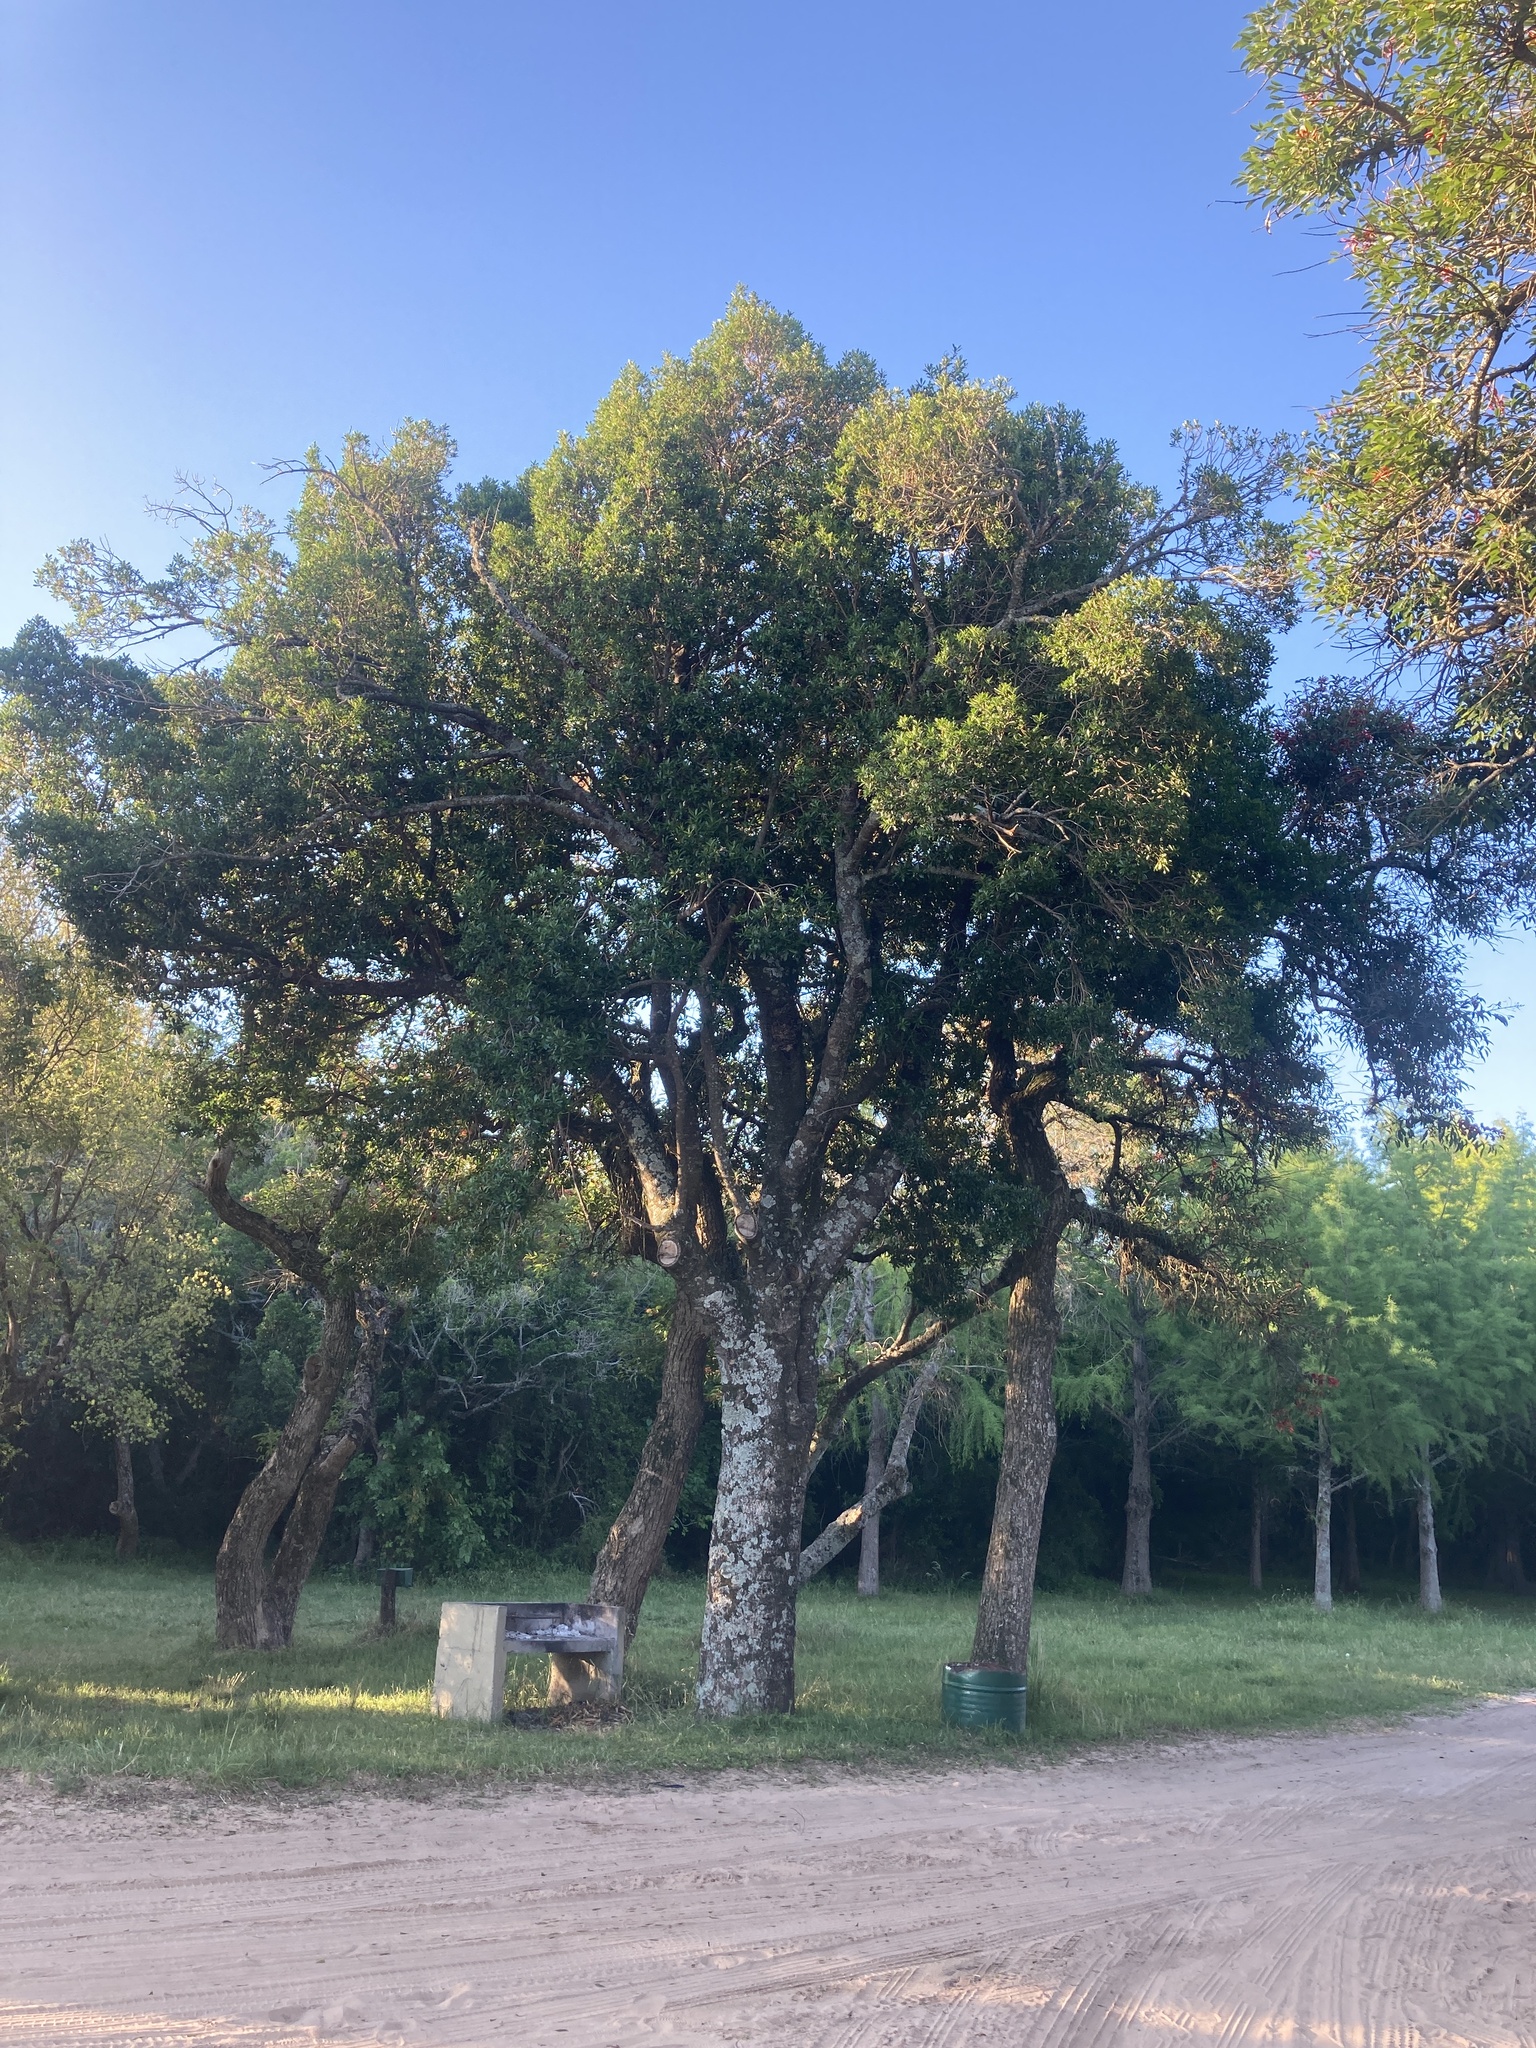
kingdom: Plantae
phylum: Tracheophyta
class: Magnoliopsida
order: Ericales
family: Primulaceae
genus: Myrsine
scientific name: Myrsine laetevirens
